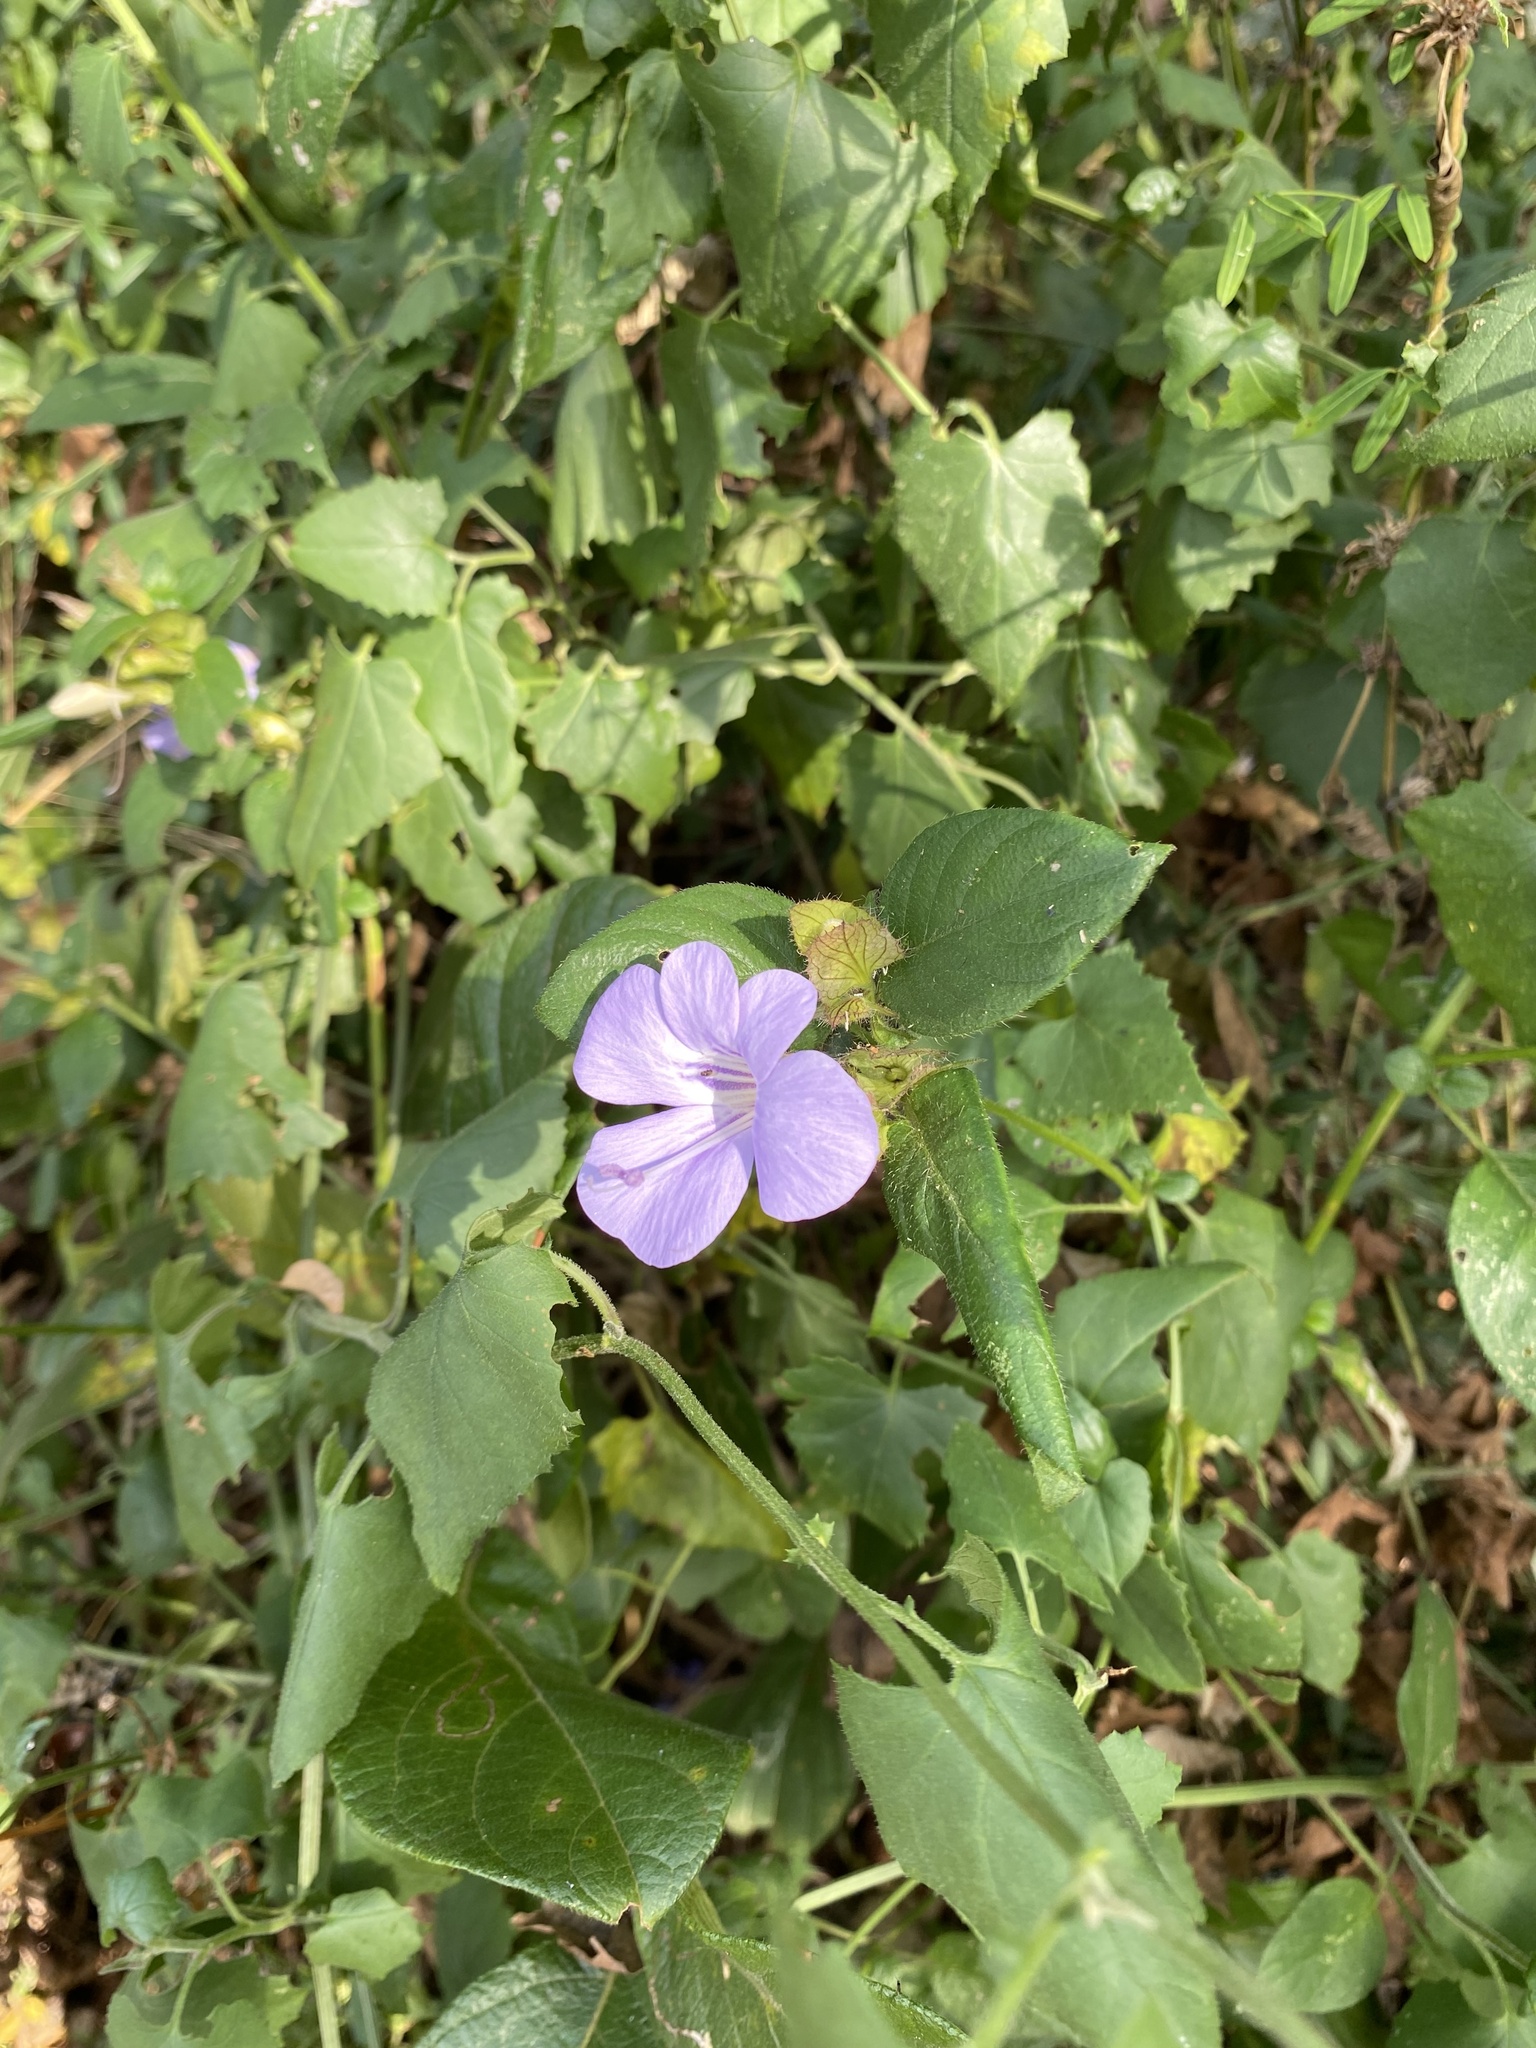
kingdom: Plantae
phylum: Tracheophyta
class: Magnoliopsida
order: Lamiales
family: Acanthaceae
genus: Barleria
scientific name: Barleria gueinzii
